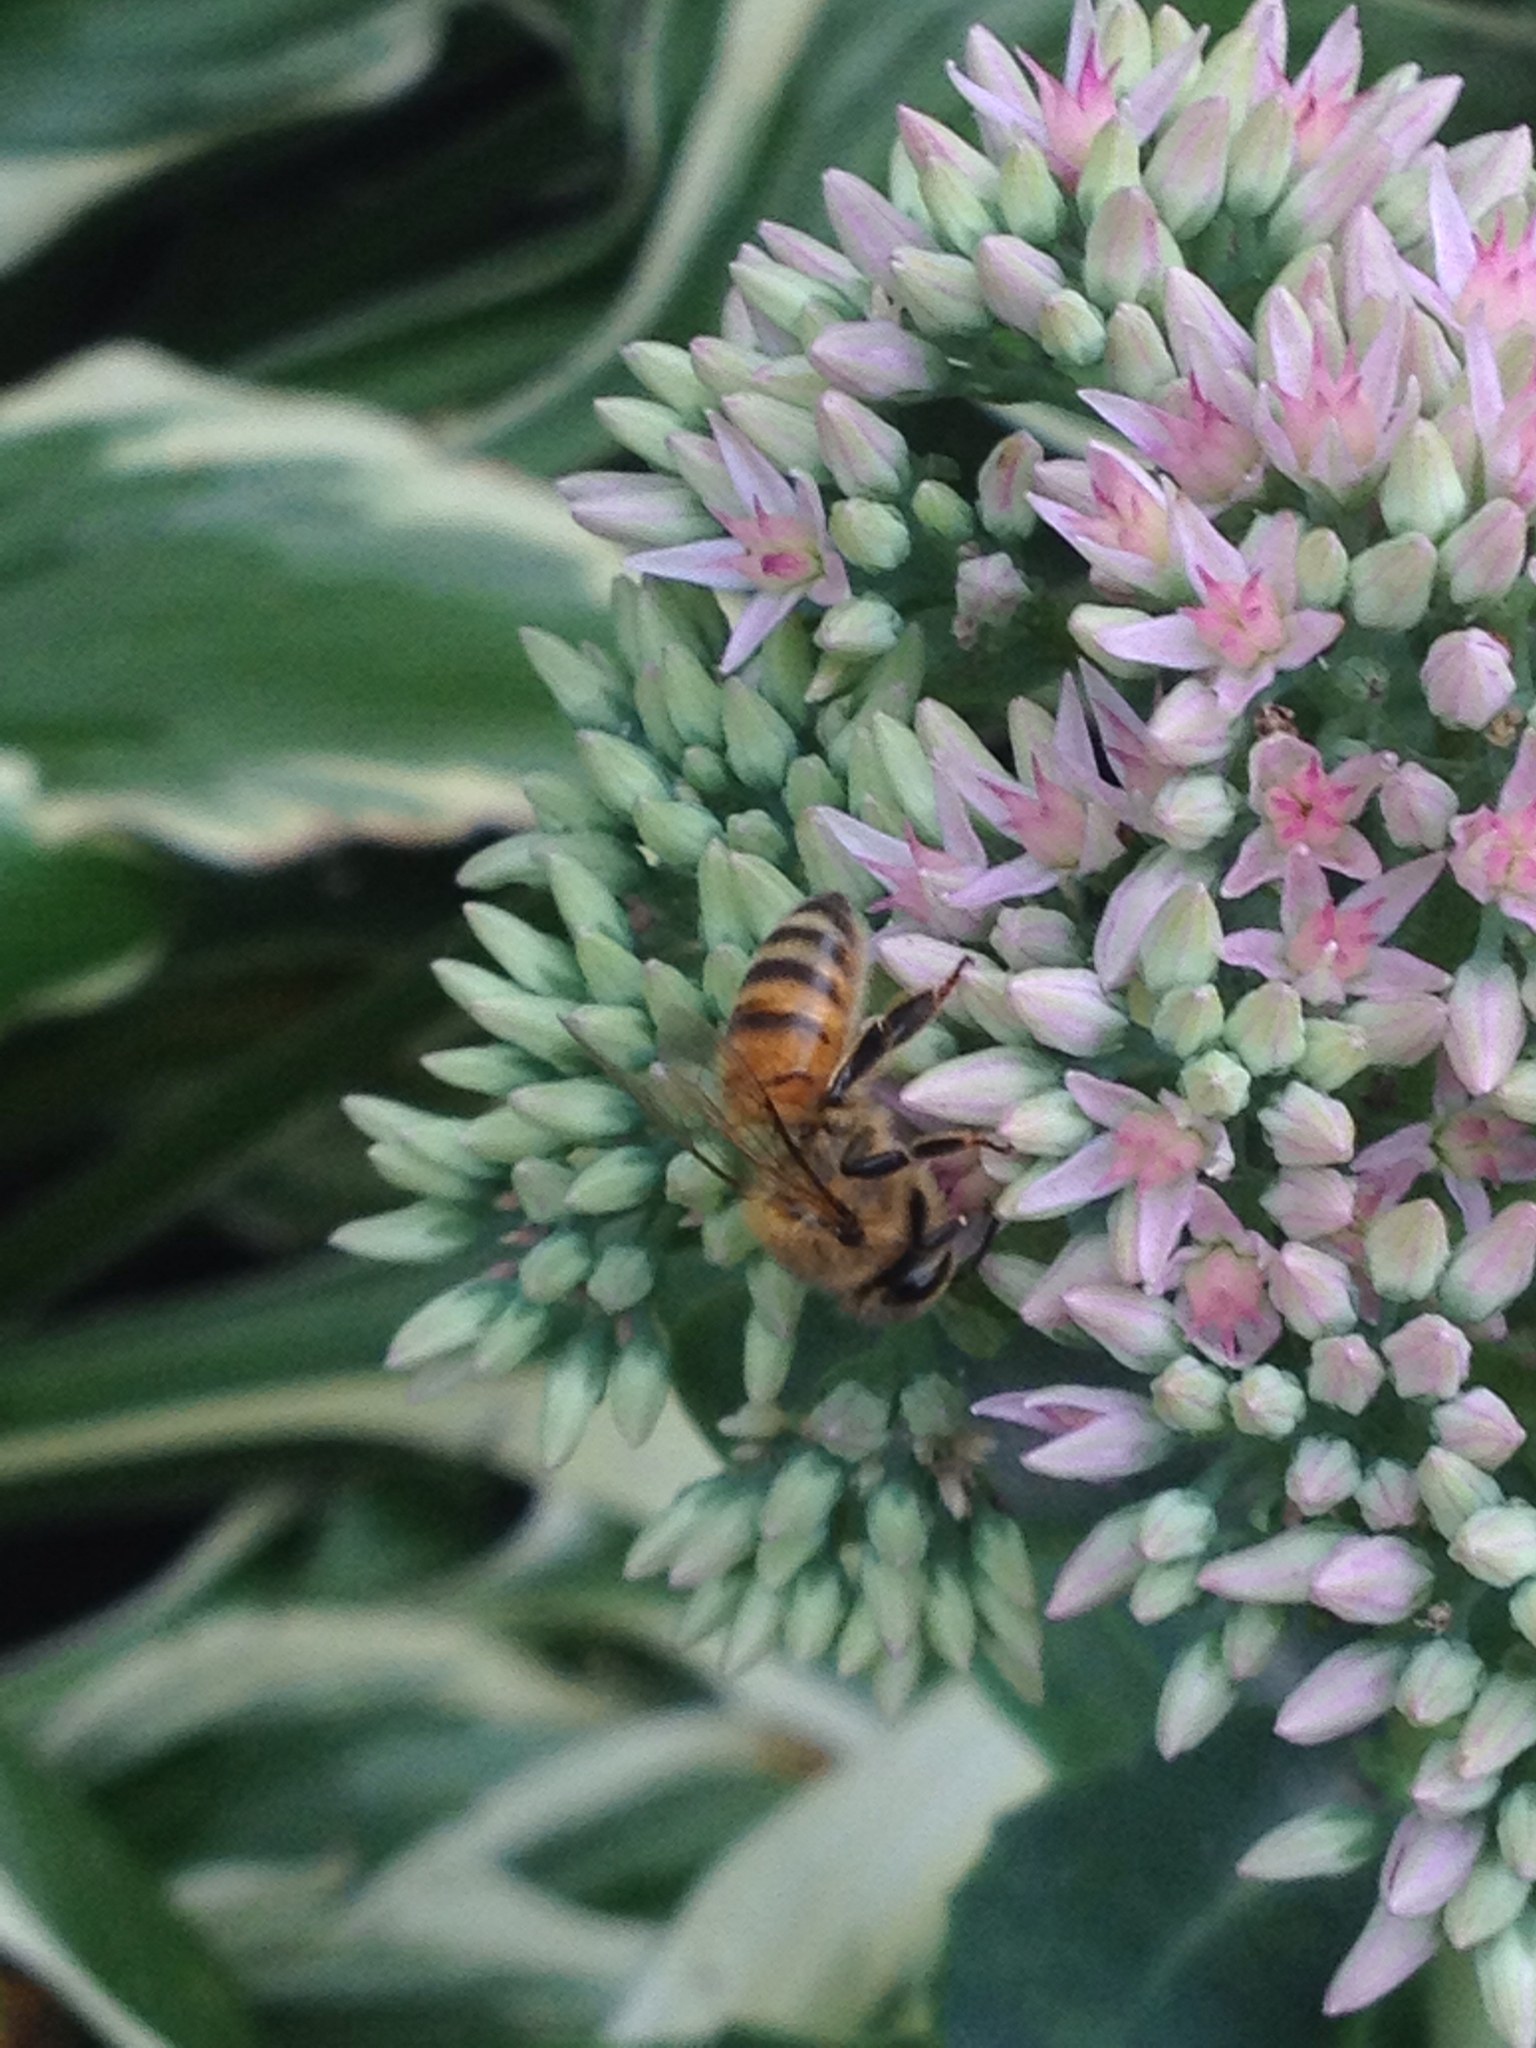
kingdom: Animalia
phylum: Arthropoda
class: Insecta
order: Hymenoptera
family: Apidae
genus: Apis
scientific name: Apis mellifera
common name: Honey bee
